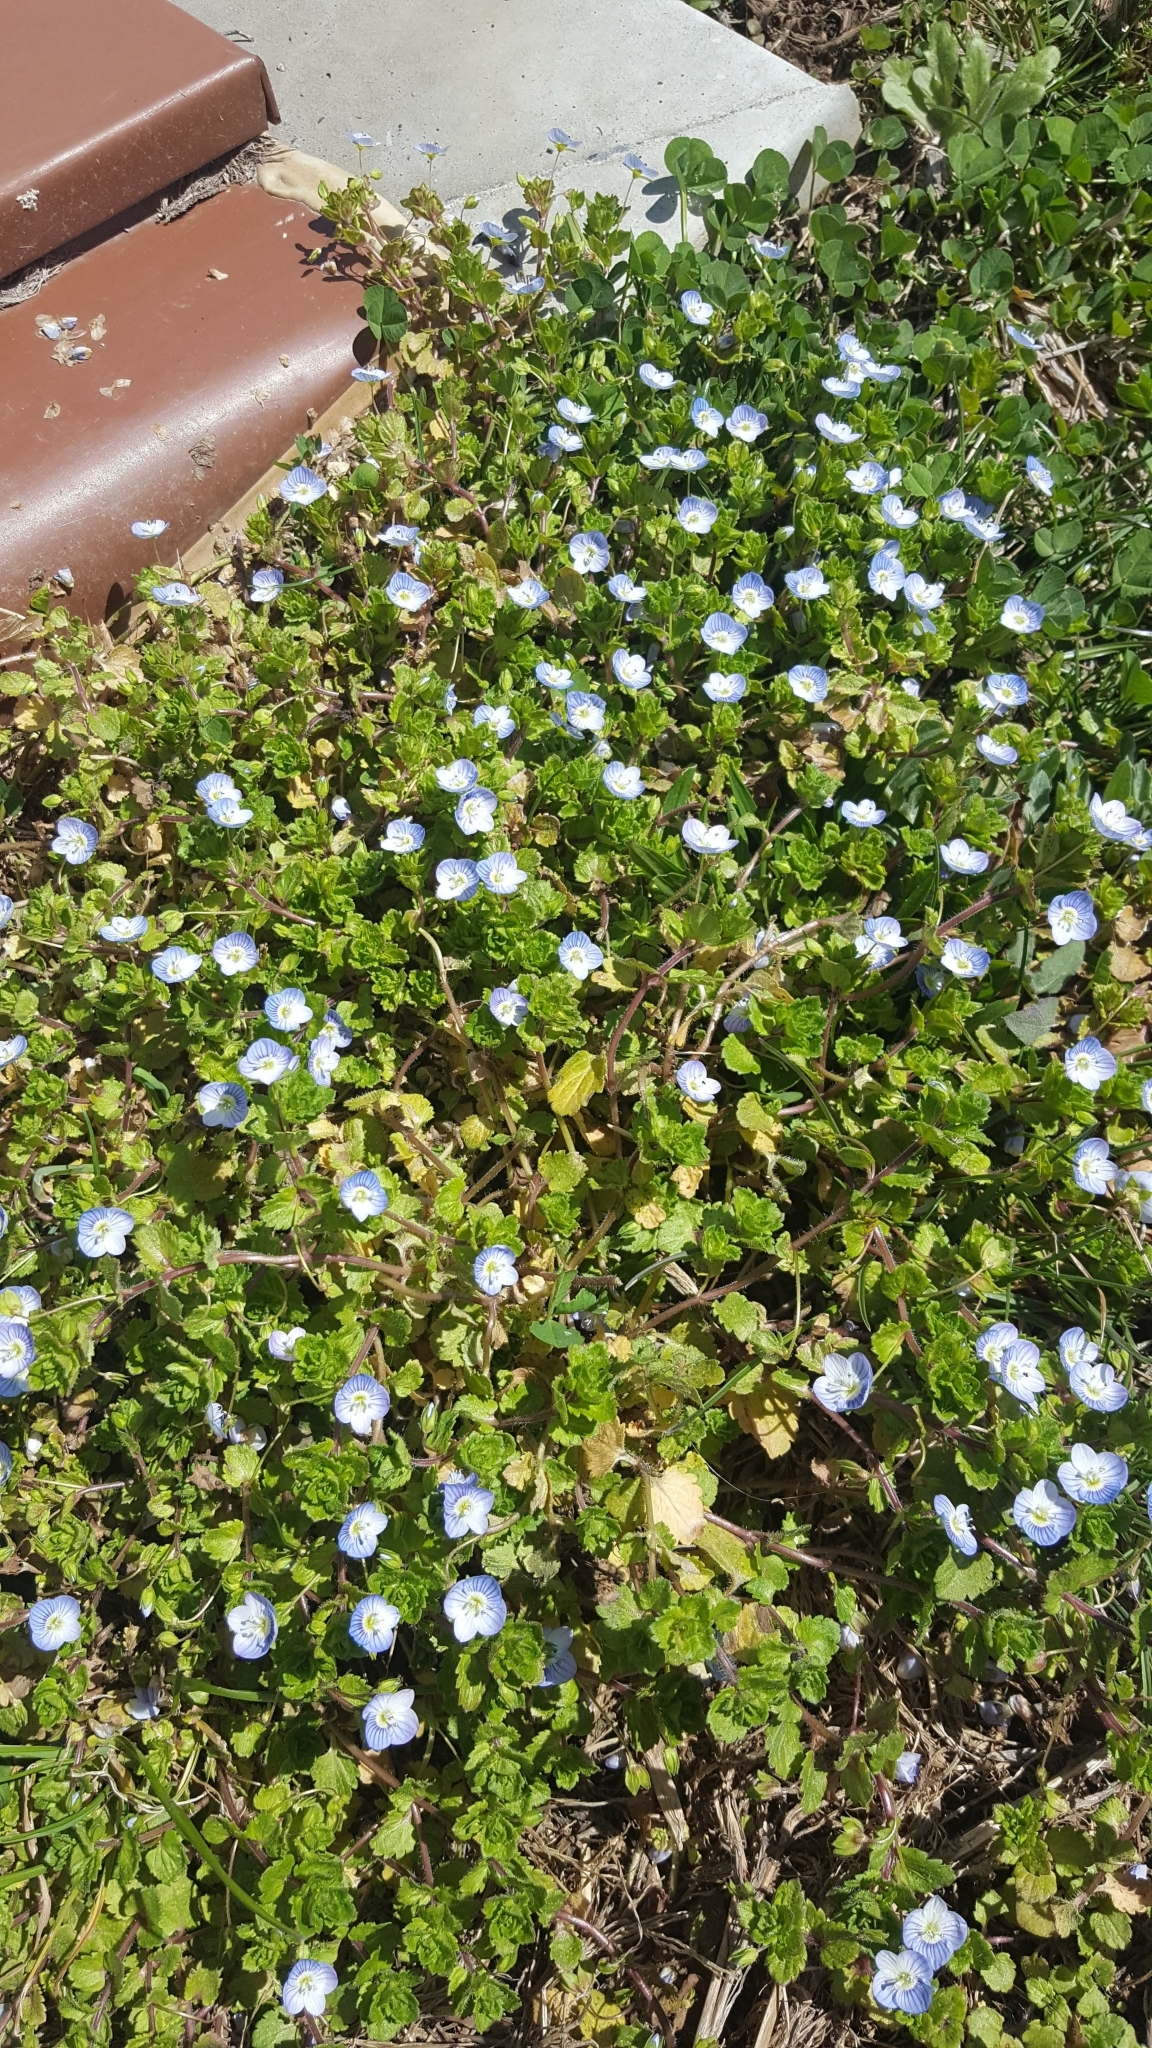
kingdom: Plantae
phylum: Tracheophyta
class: Magnoliopsida
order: Lamiales
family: Plantaginaceae
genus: Veronica
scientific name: Veronica persica
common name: Common field-speedwell
